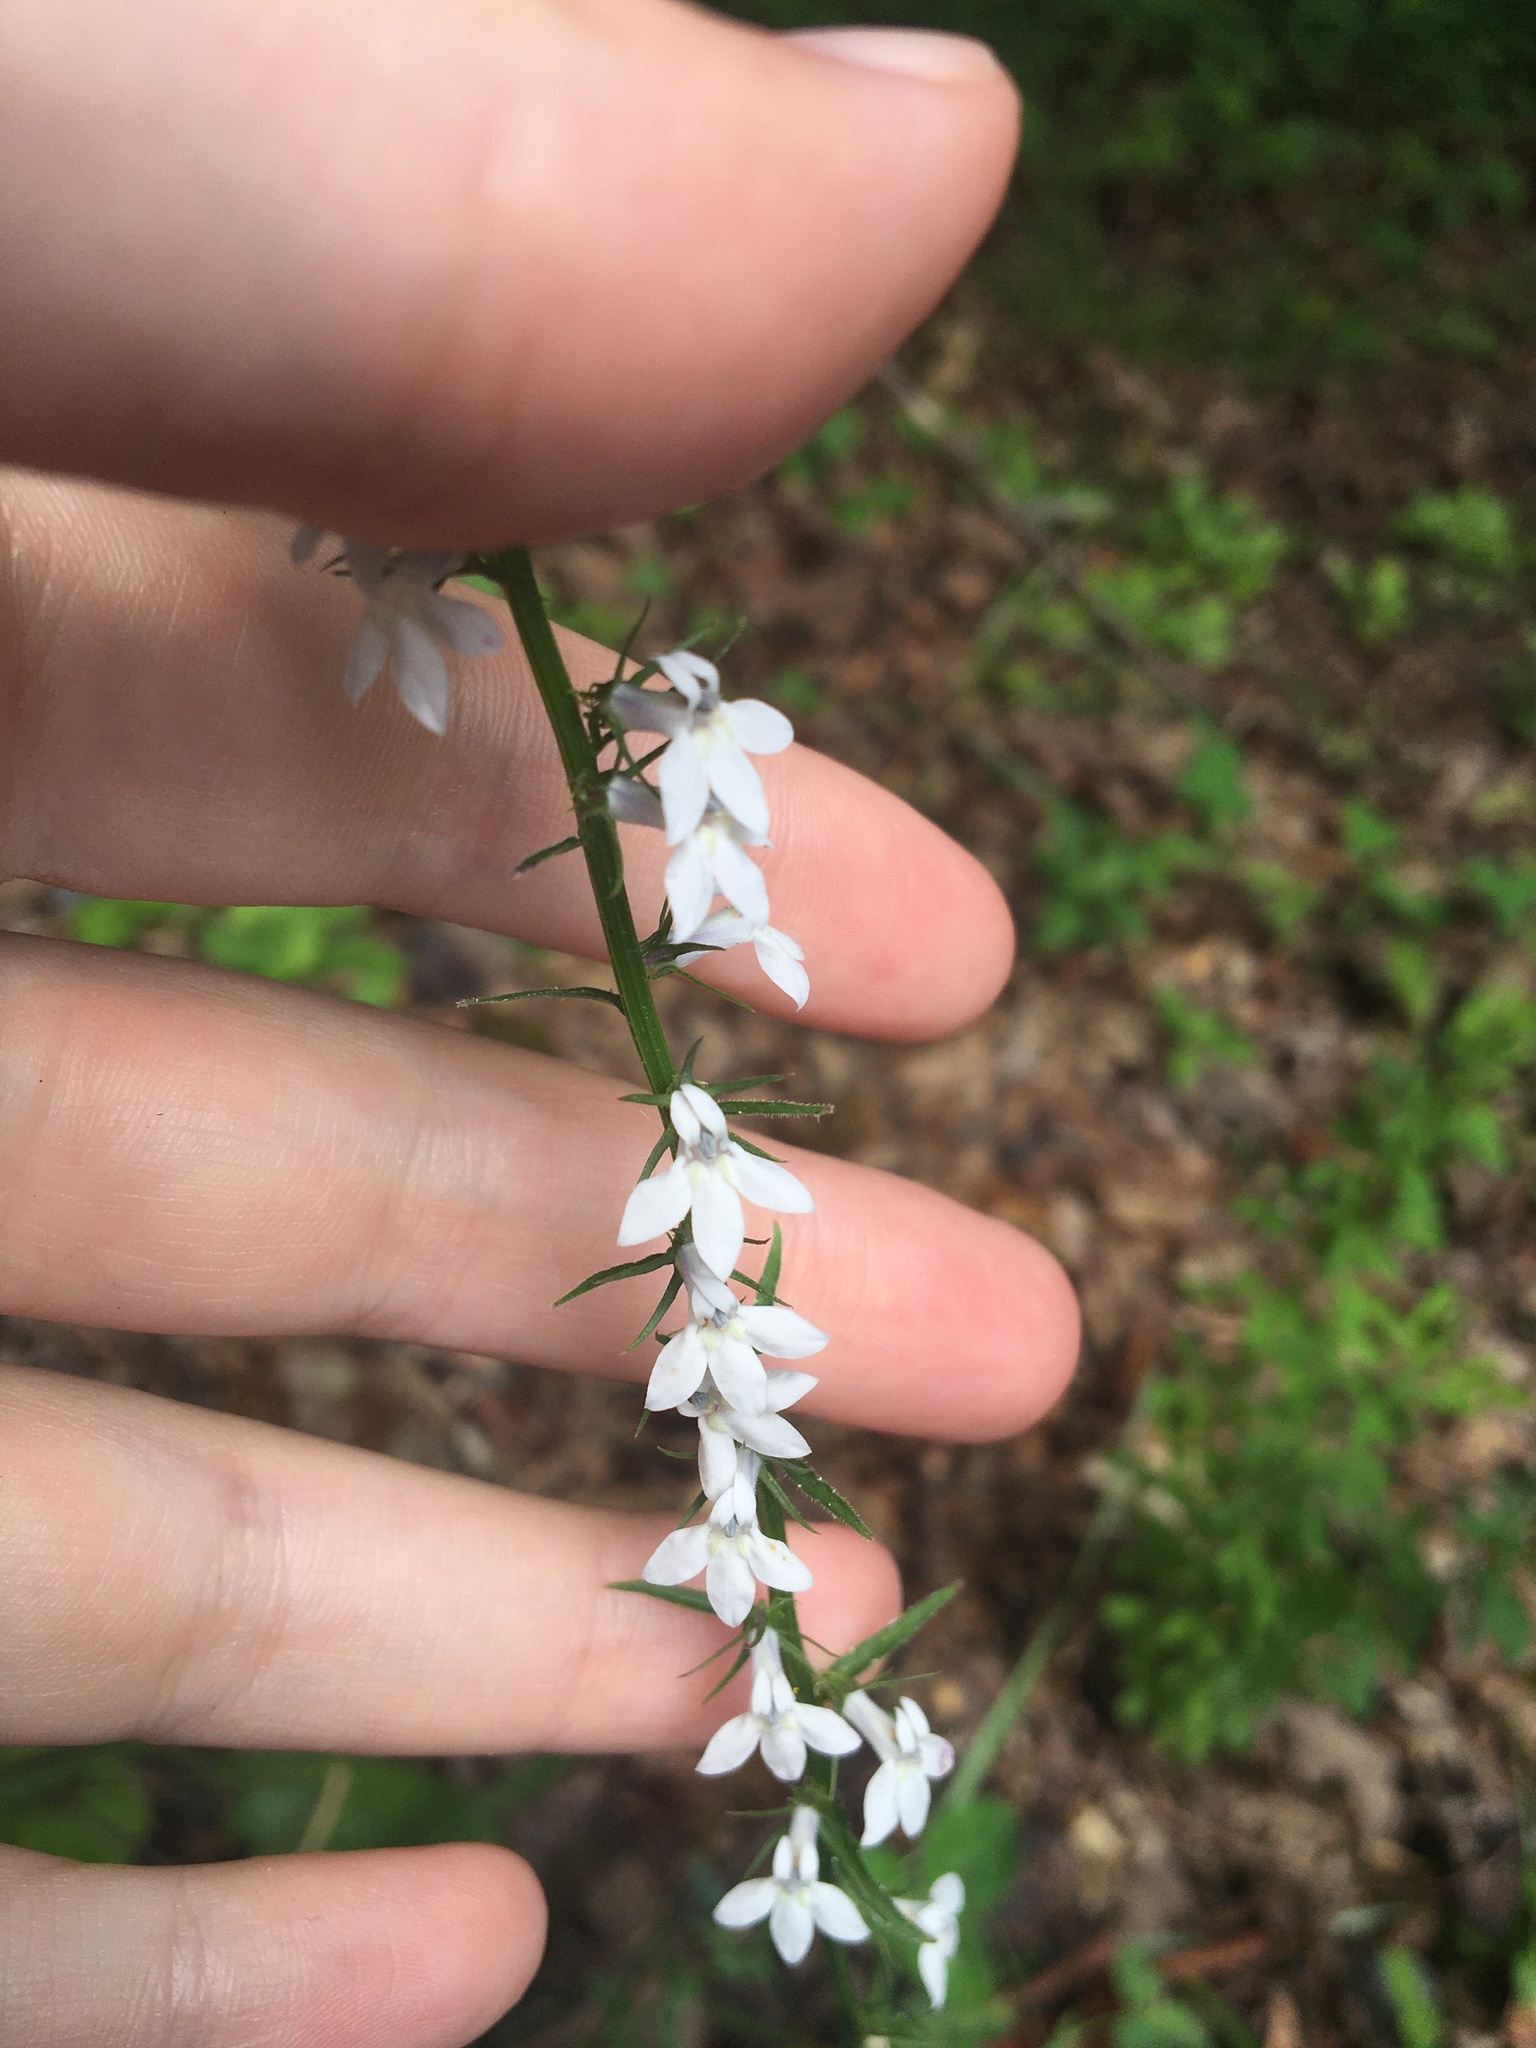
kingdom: Plantae
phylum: Tracheophyta
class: Magnoliopsida
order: Asterales
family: Campanulaceae
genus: Lobelia
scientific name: Lobelia spicata
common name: Pale-spike lobelia
